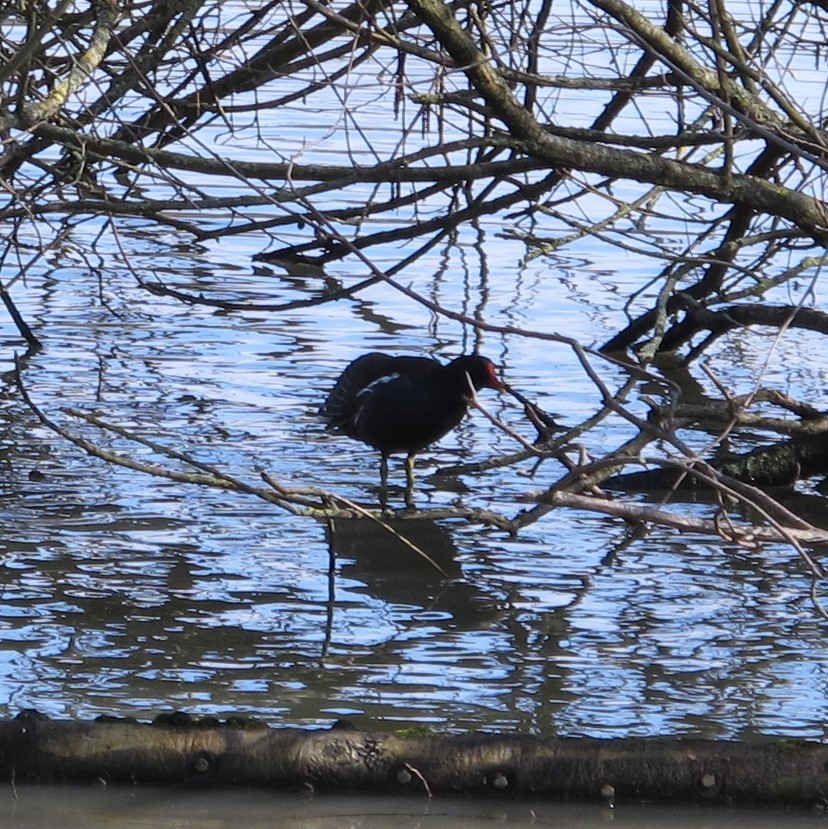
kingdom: Animalia
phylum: Chordata
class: Aves
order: Gruiformes
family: Rallidae
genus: Gallinula
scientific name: Gallinula chloropus
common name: Common moorhen
